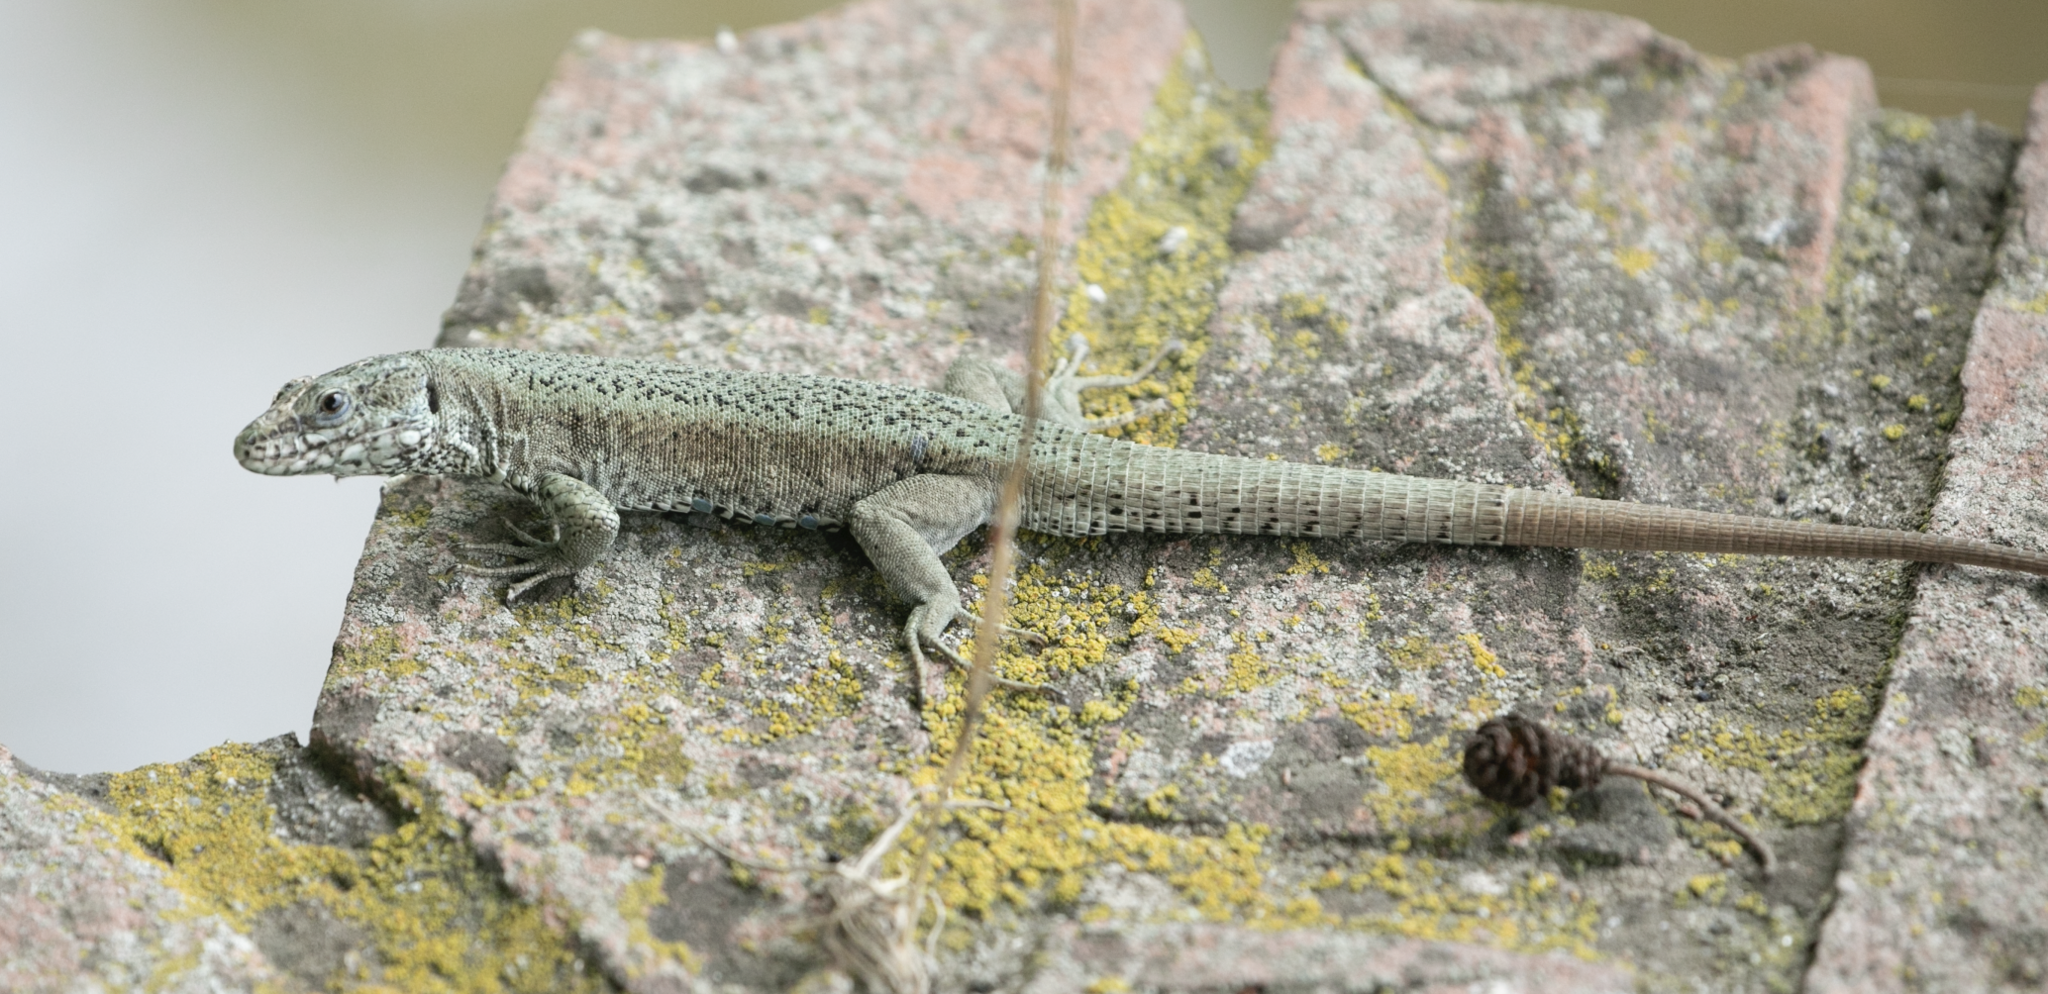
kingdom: Animalia
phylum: Chordata
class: Squamata
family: Lacertidae
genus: Podarcis
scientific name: Podarcis muralis
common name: Common wall lizard
